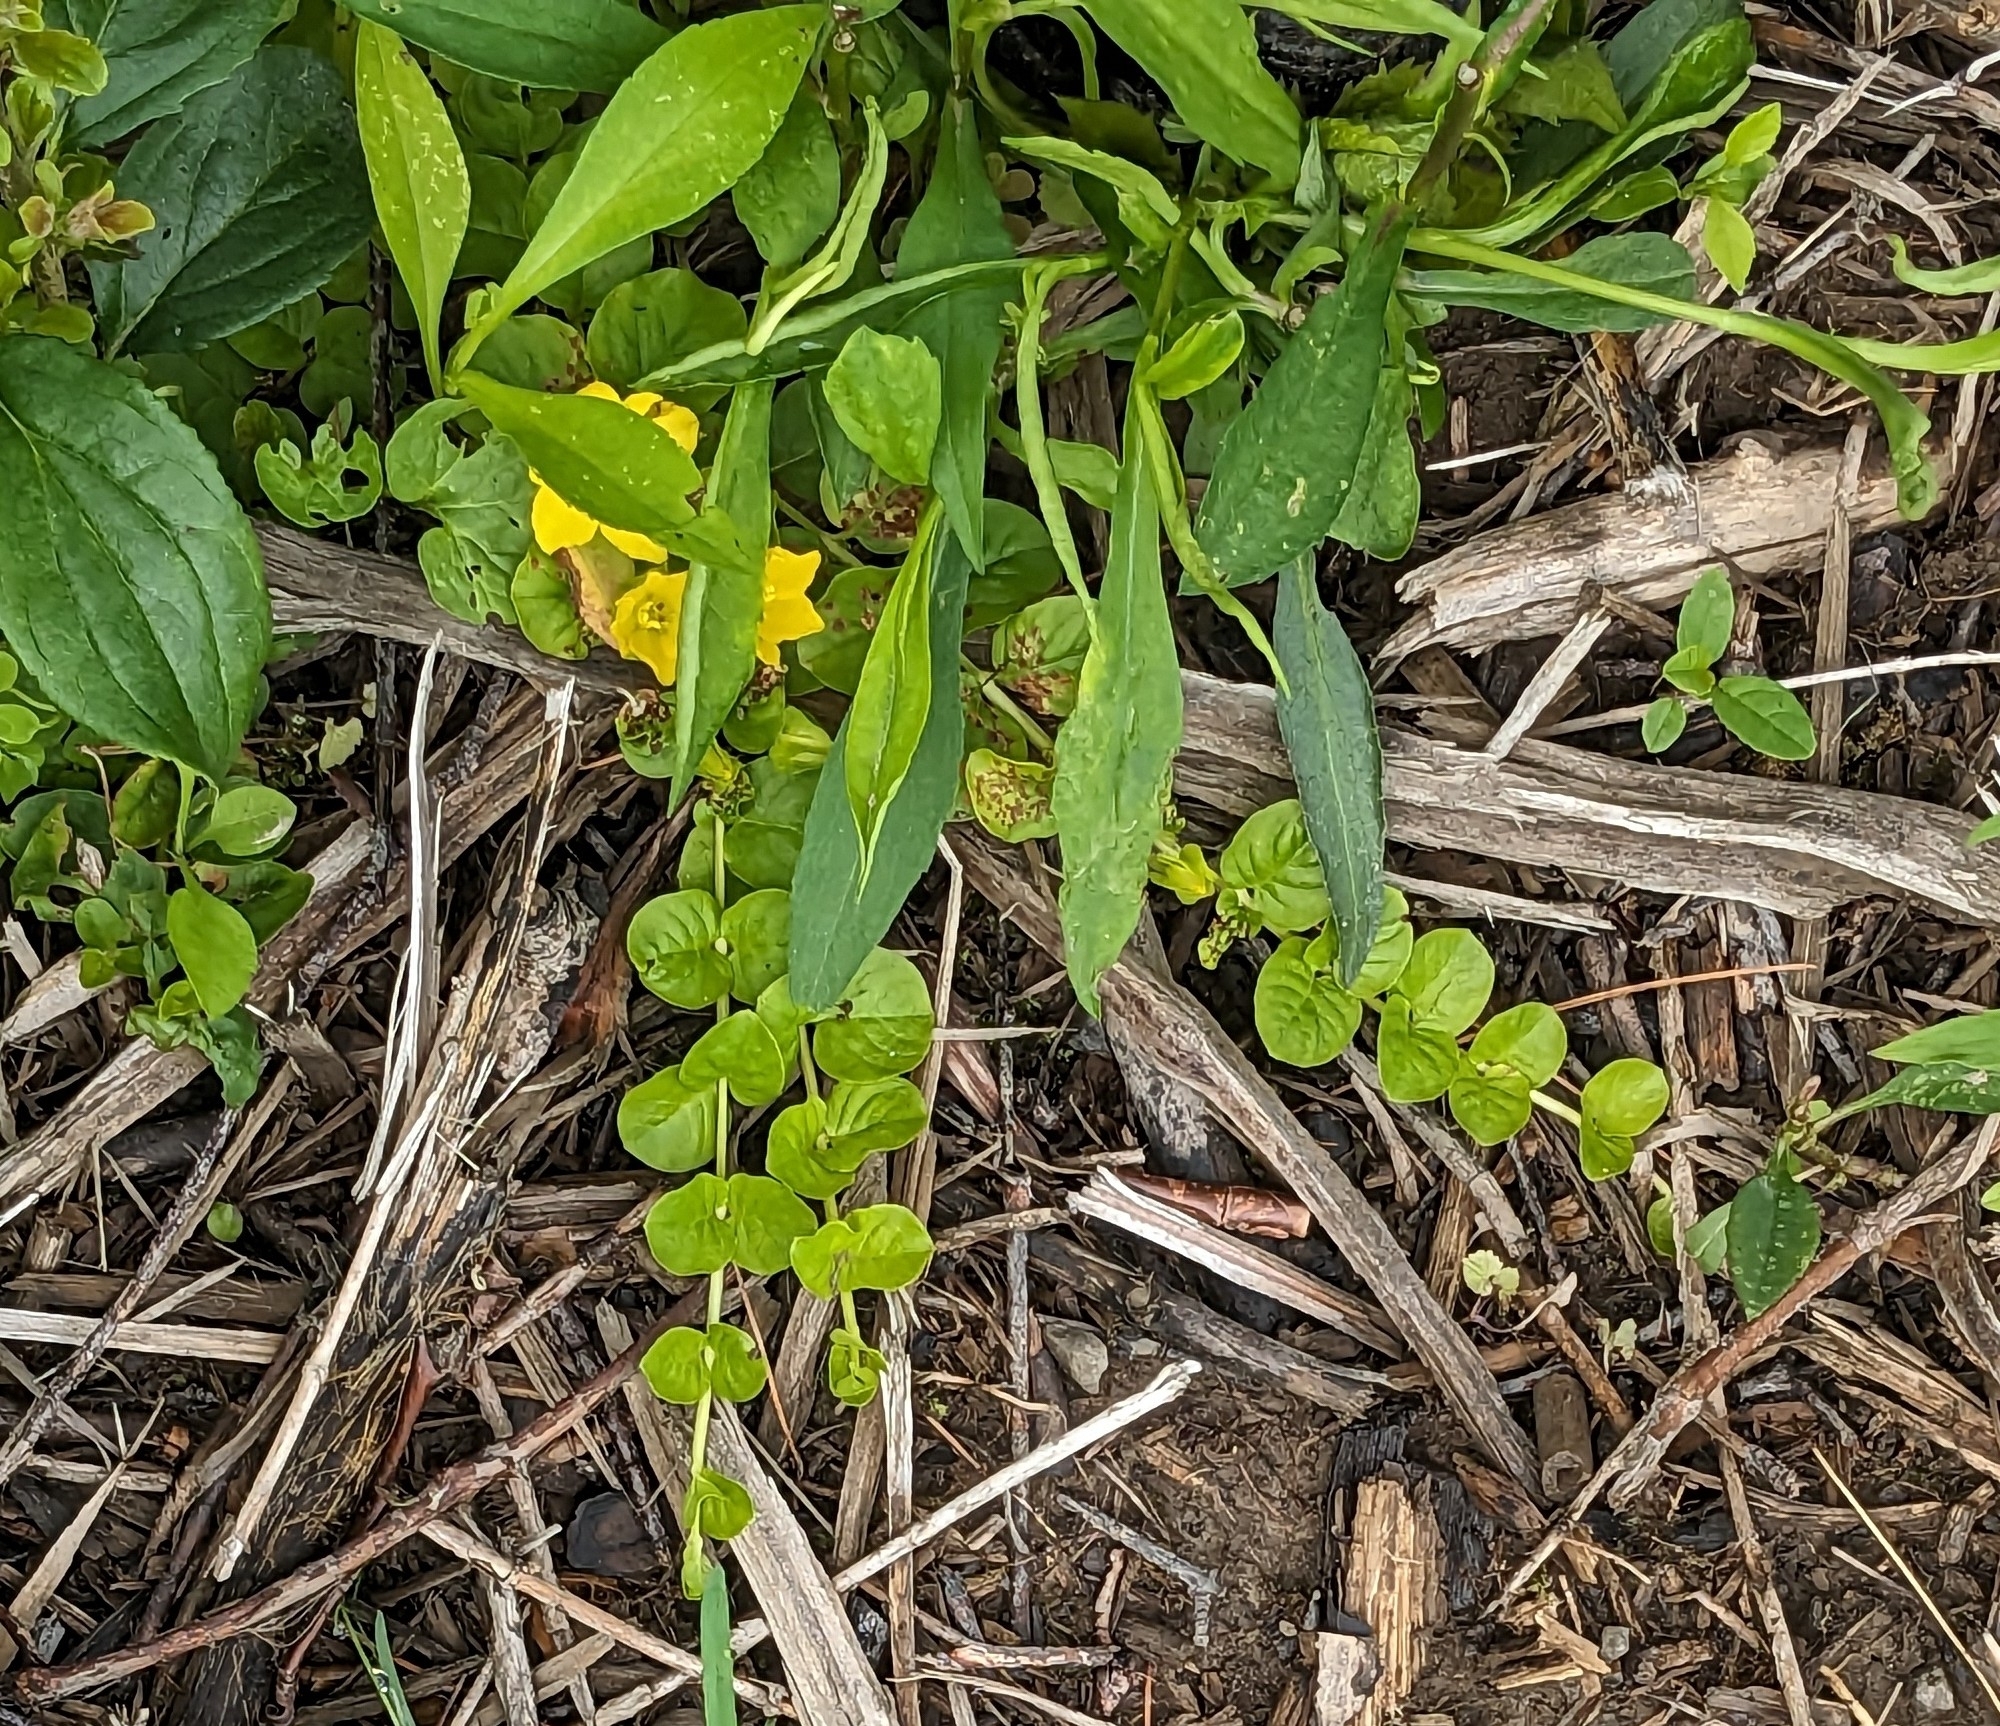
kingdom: Plantae
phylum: Tracheophyta
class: Magnoliopsida
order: Ericales
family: Primulaceae
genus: Lysimachia
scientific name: Lysimachia nummularia
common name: Moneywort
